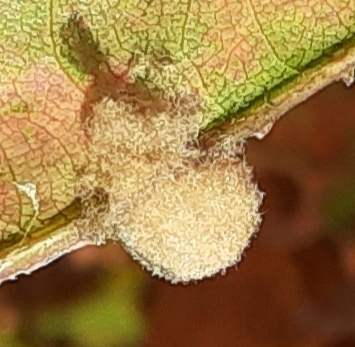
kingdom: Animalia
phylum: Arthropoda
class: Insecta
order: Hymenoptera
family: Cynipidae
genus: Callirhytis
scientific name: Callirhytis
